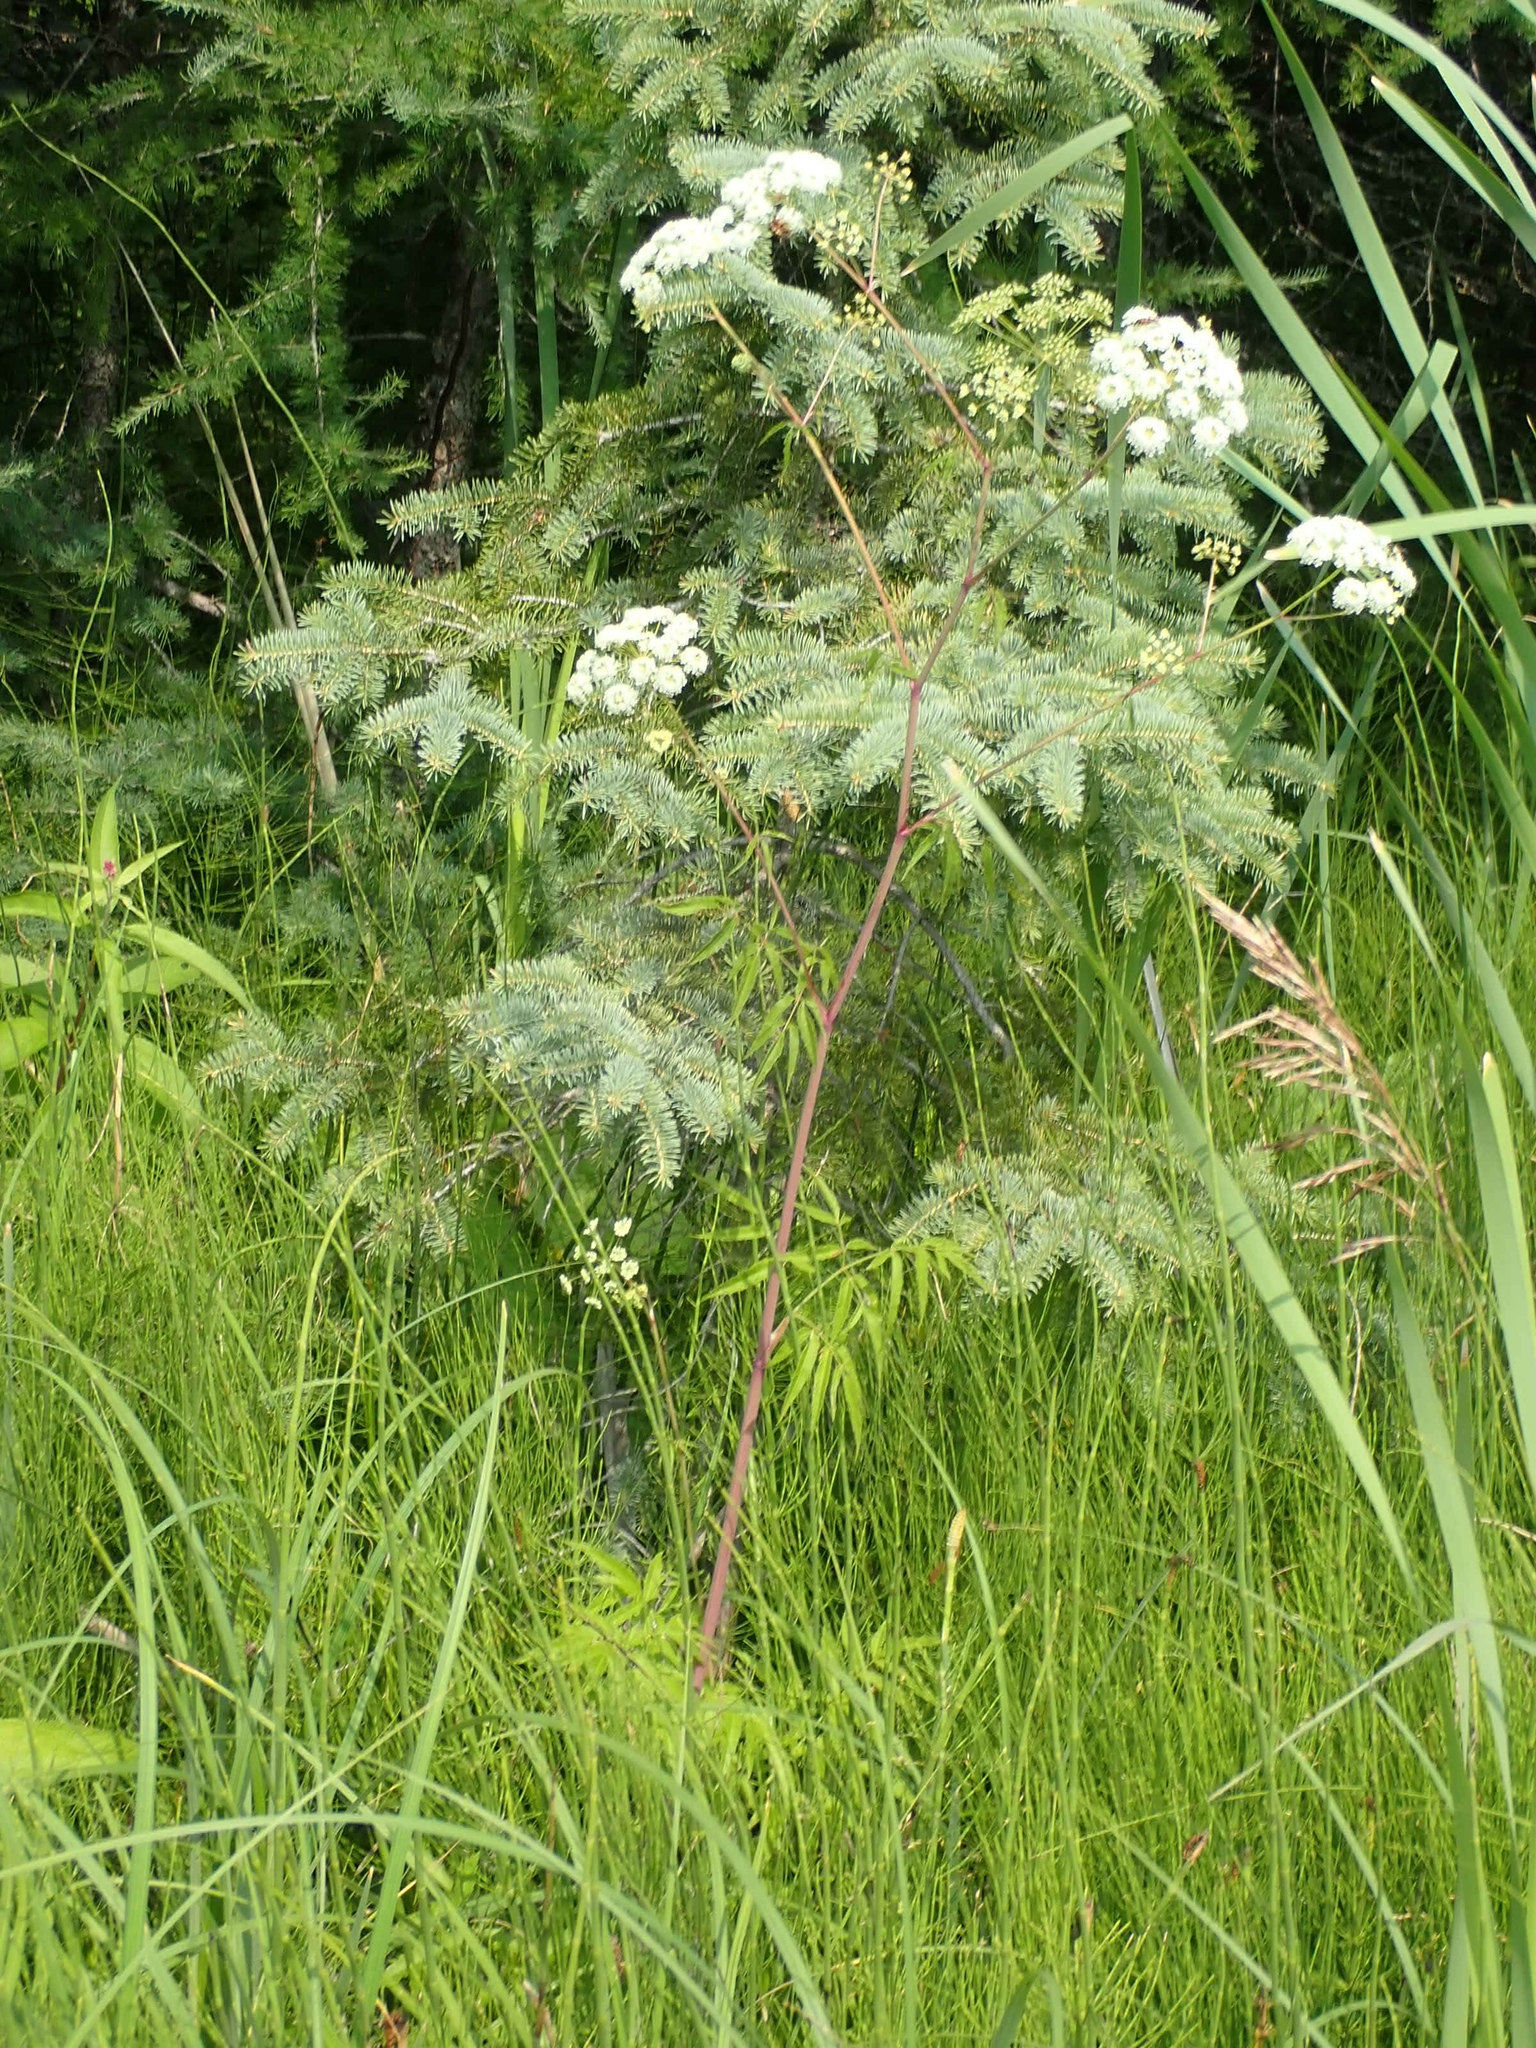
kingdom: Plantae
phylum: Tracheophyta
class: Magnoliopsida
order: Apiales
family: Apiaceae
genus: Cicuta
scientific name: Cicuta maculata
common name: Spotted cowbane
